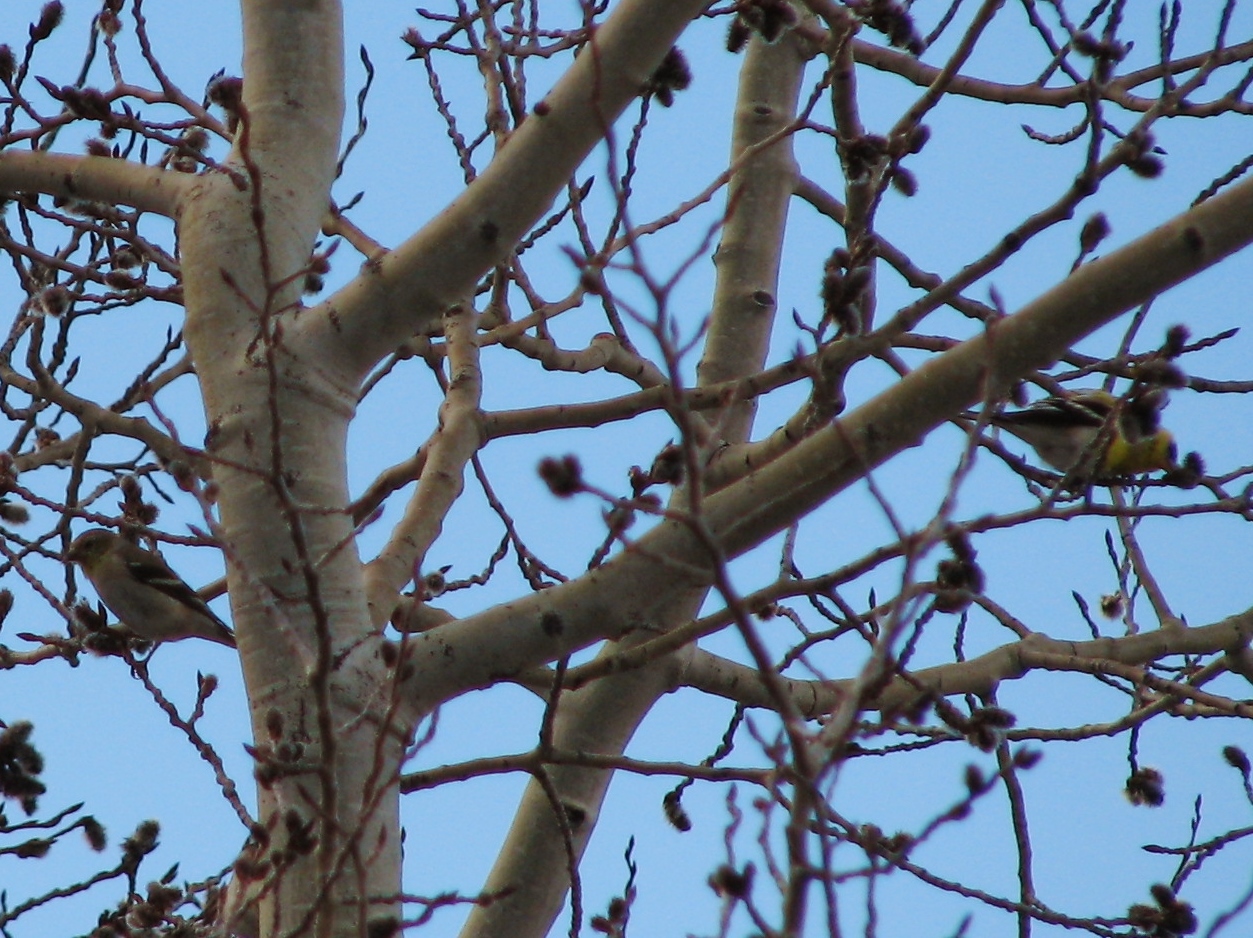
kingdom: Animalia
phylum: Chordata
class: Aves
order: Passeriformes
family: Fringillidae
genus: Spinus
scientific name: Spinus tristis
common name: American goldfinch
